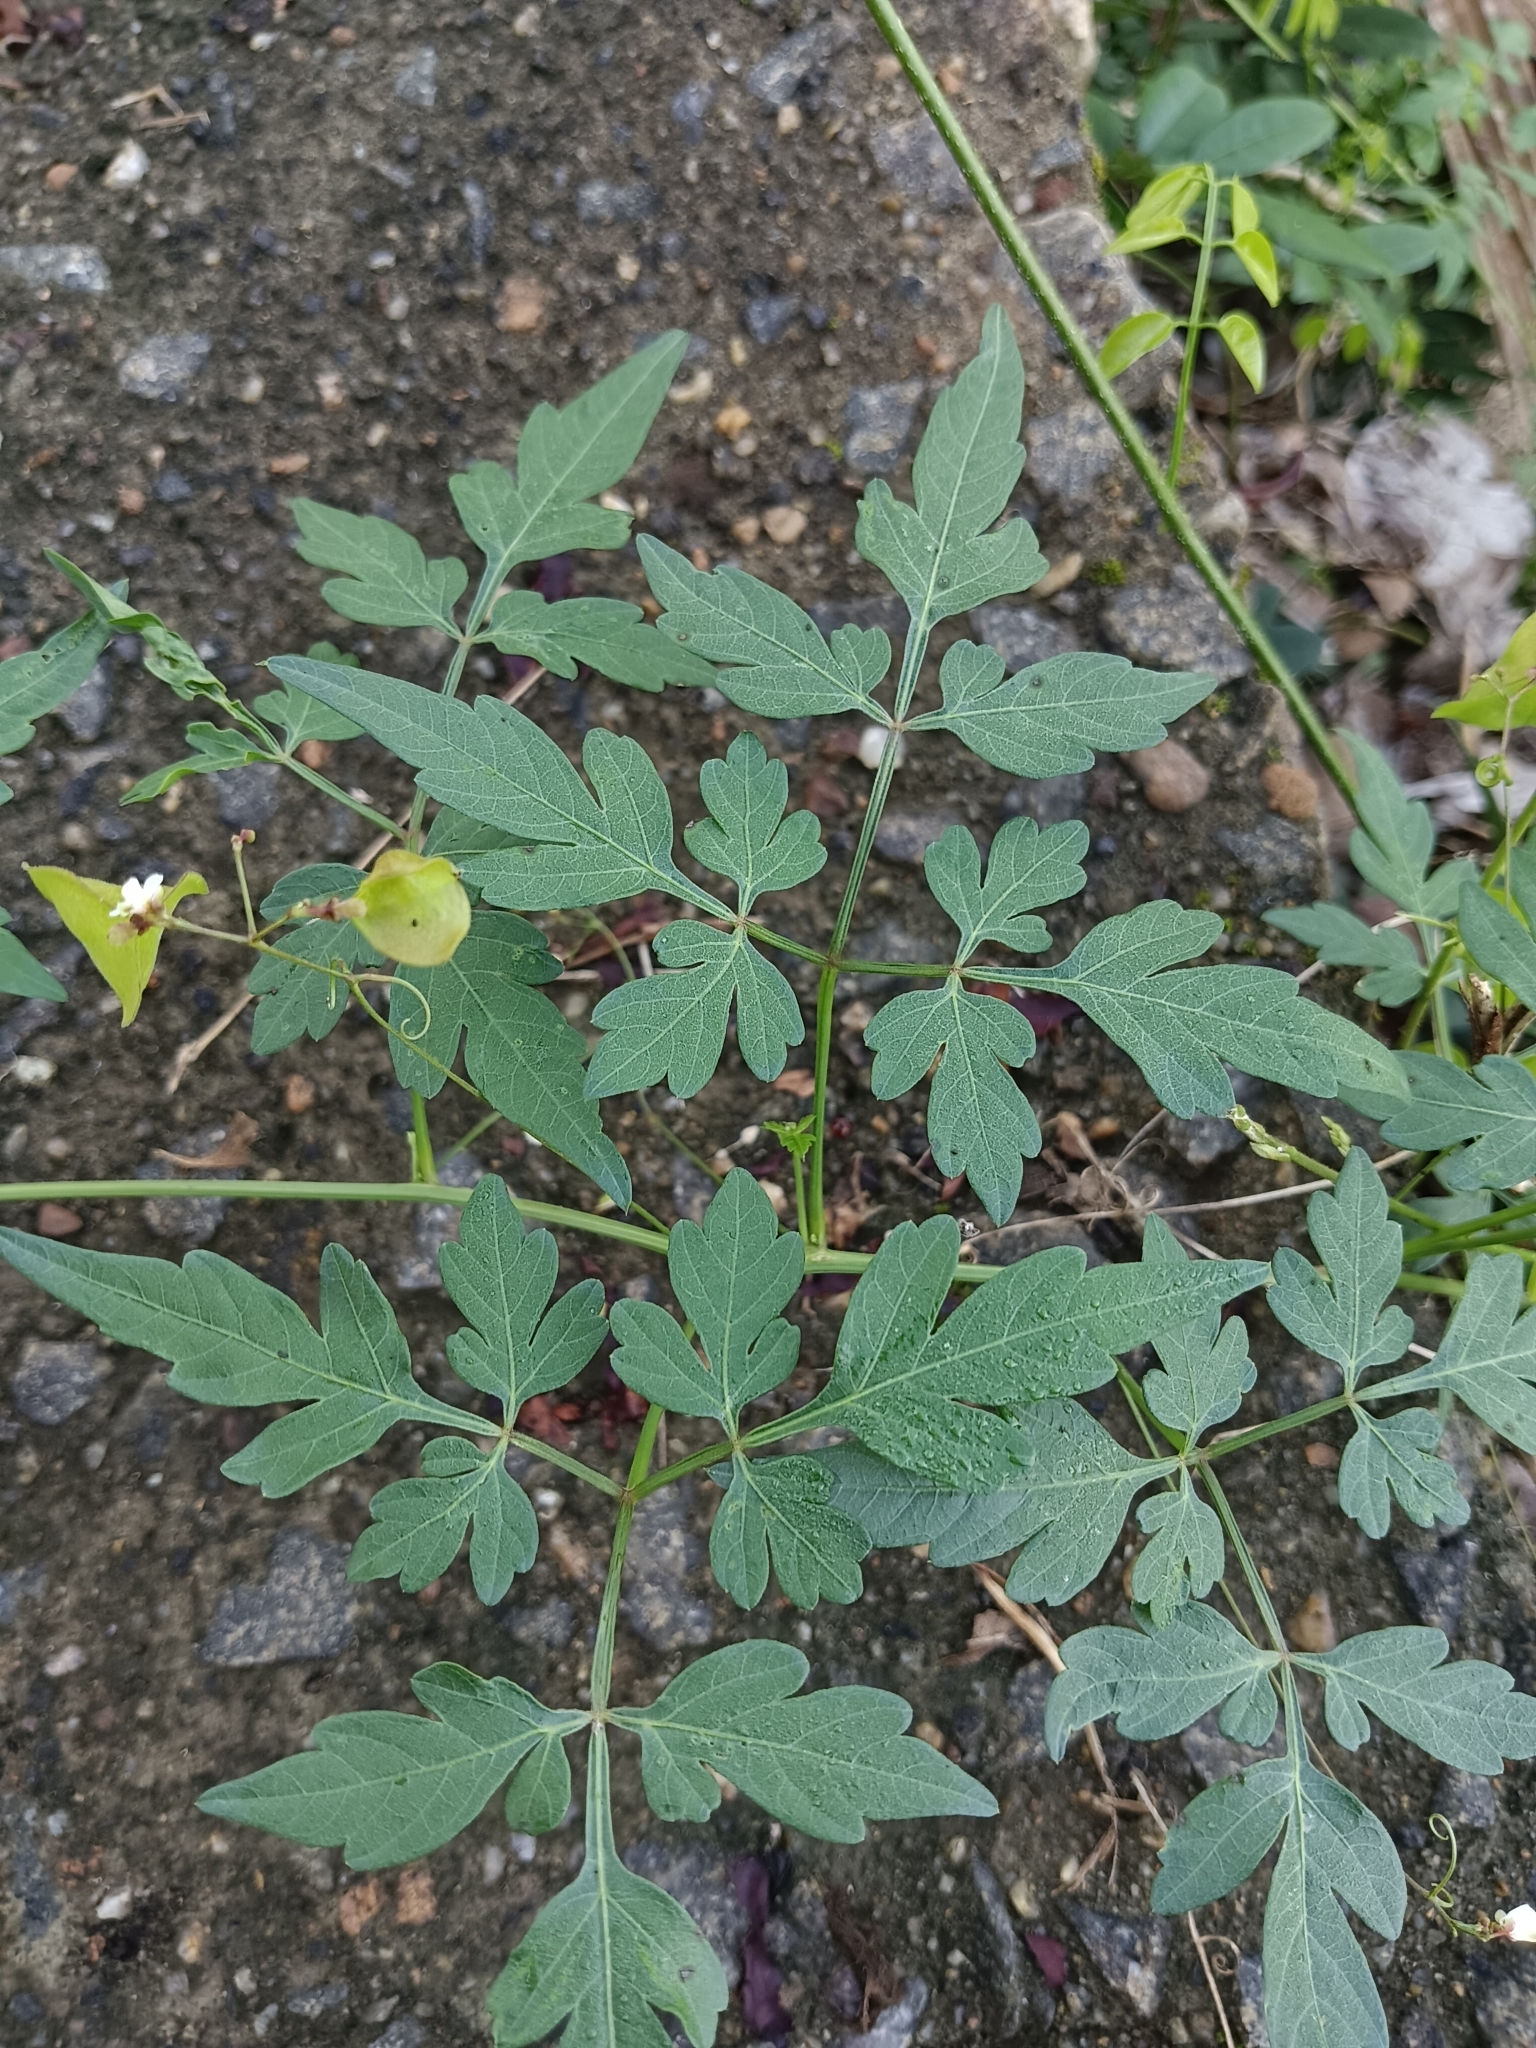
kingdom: Plantae
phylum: Tracheophyta
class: Magnoliopsida
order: Sapindales
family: Sapindaceae
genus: Cardiospermum
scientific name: Cardiospermum halicacabum
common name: Balloon vine
